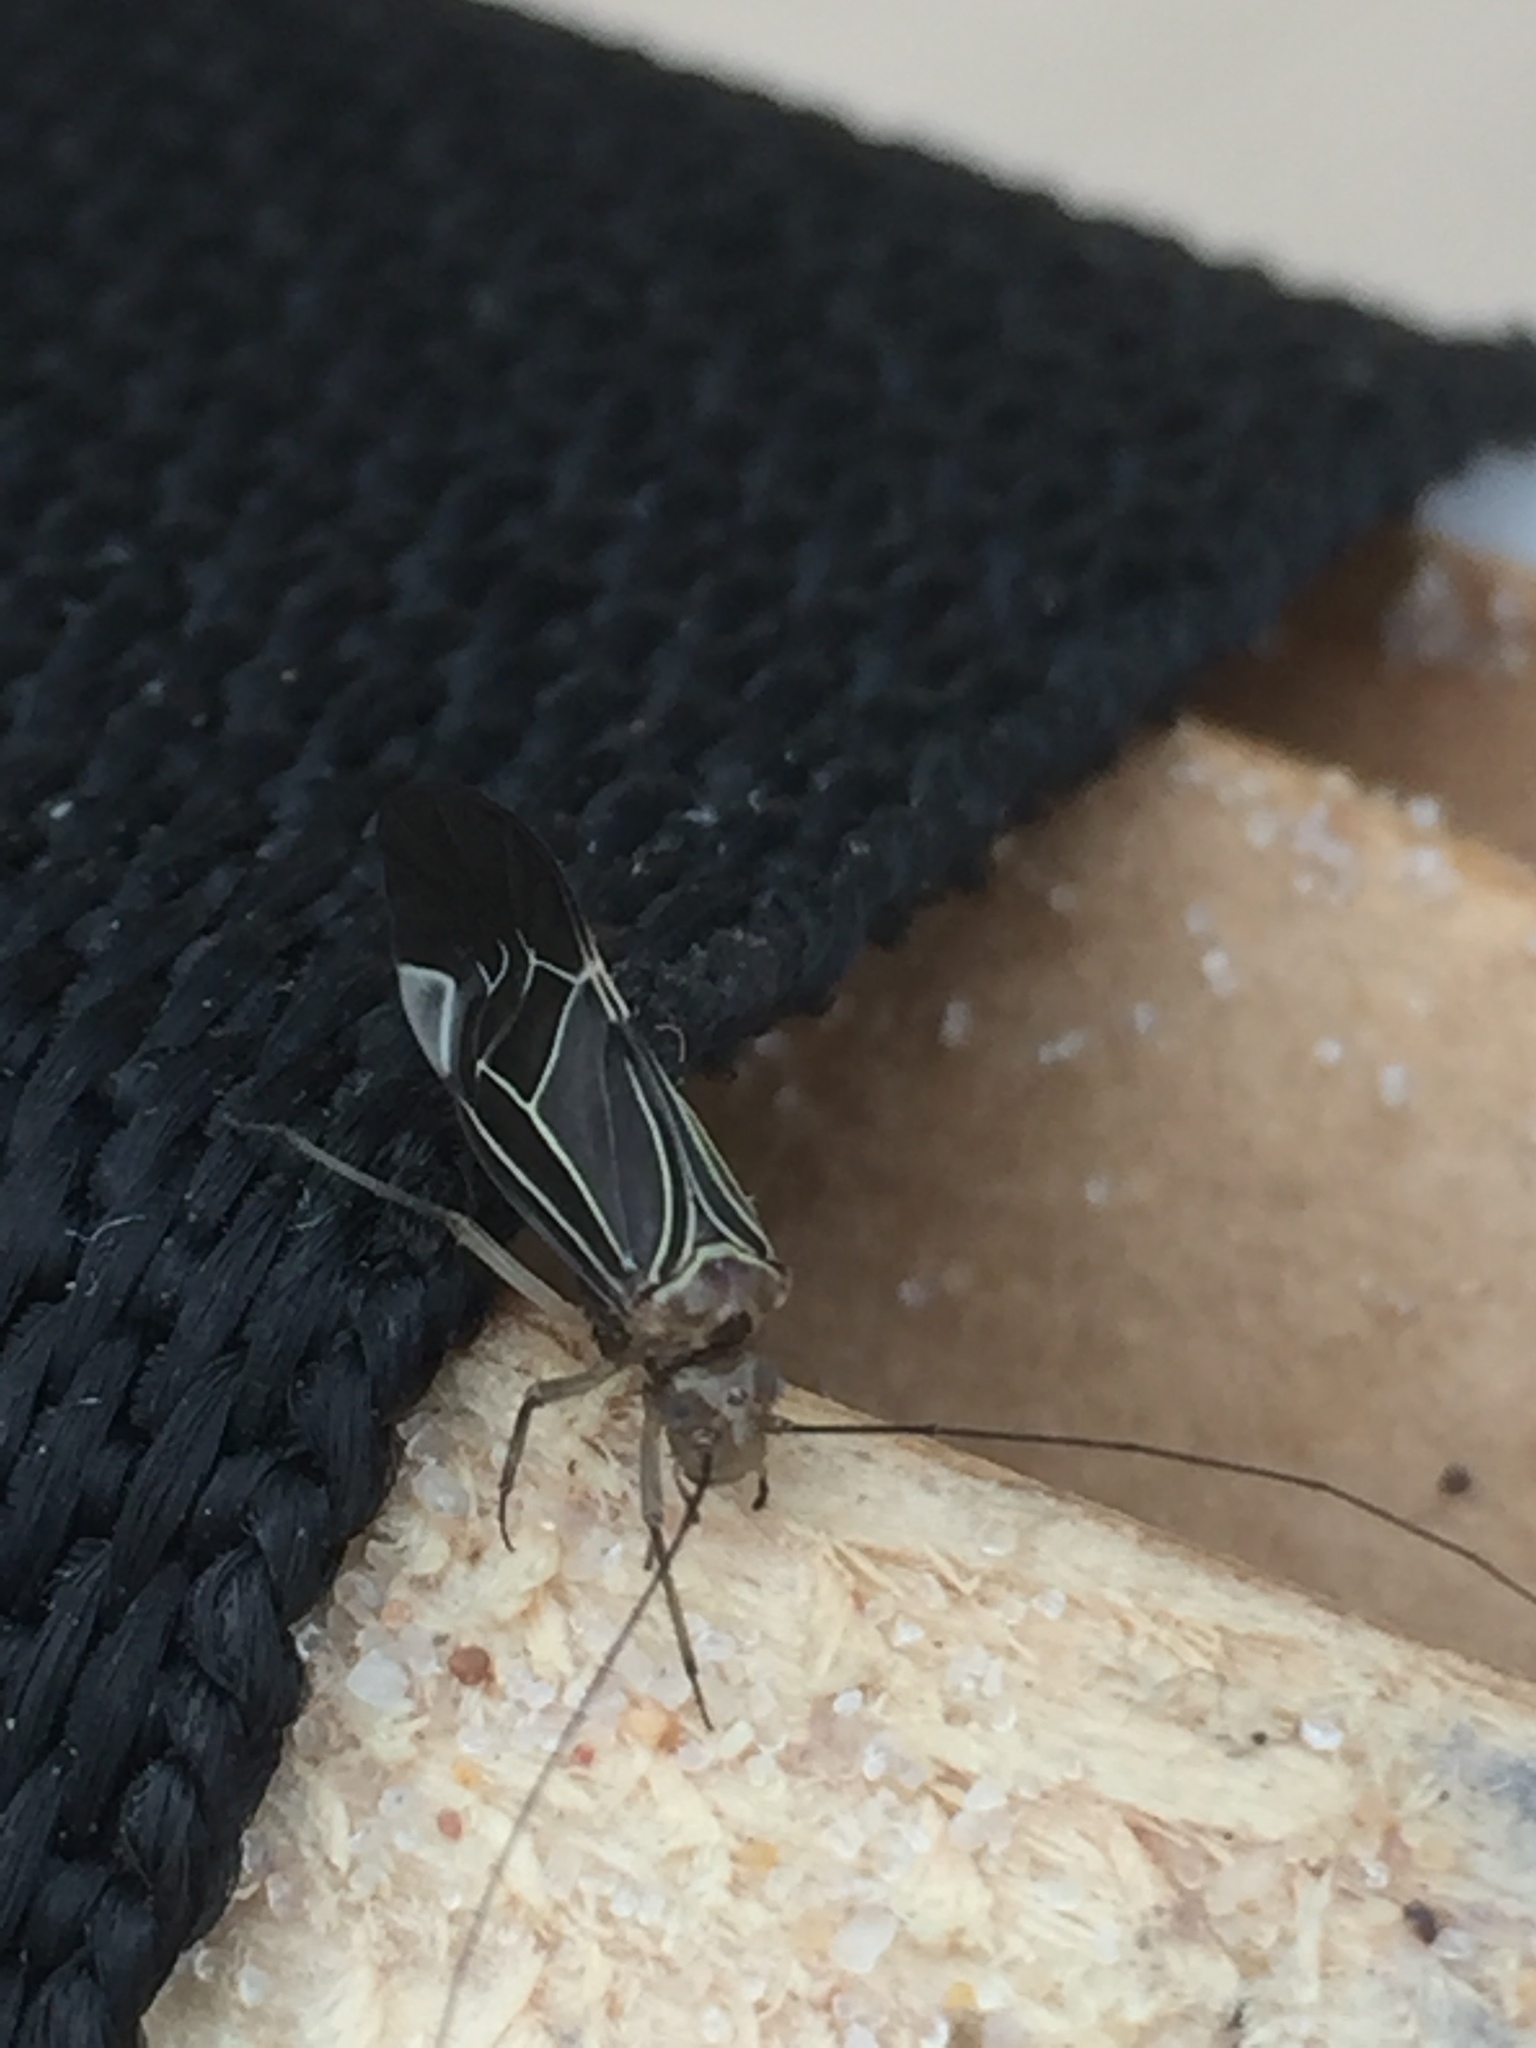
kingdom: Animalia
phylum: Arthropoda
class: Insecta
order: Psocodea
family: Psocidae
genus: Cerastipsocus
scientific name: Cerastipsocus venosus
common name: Tree cattle
